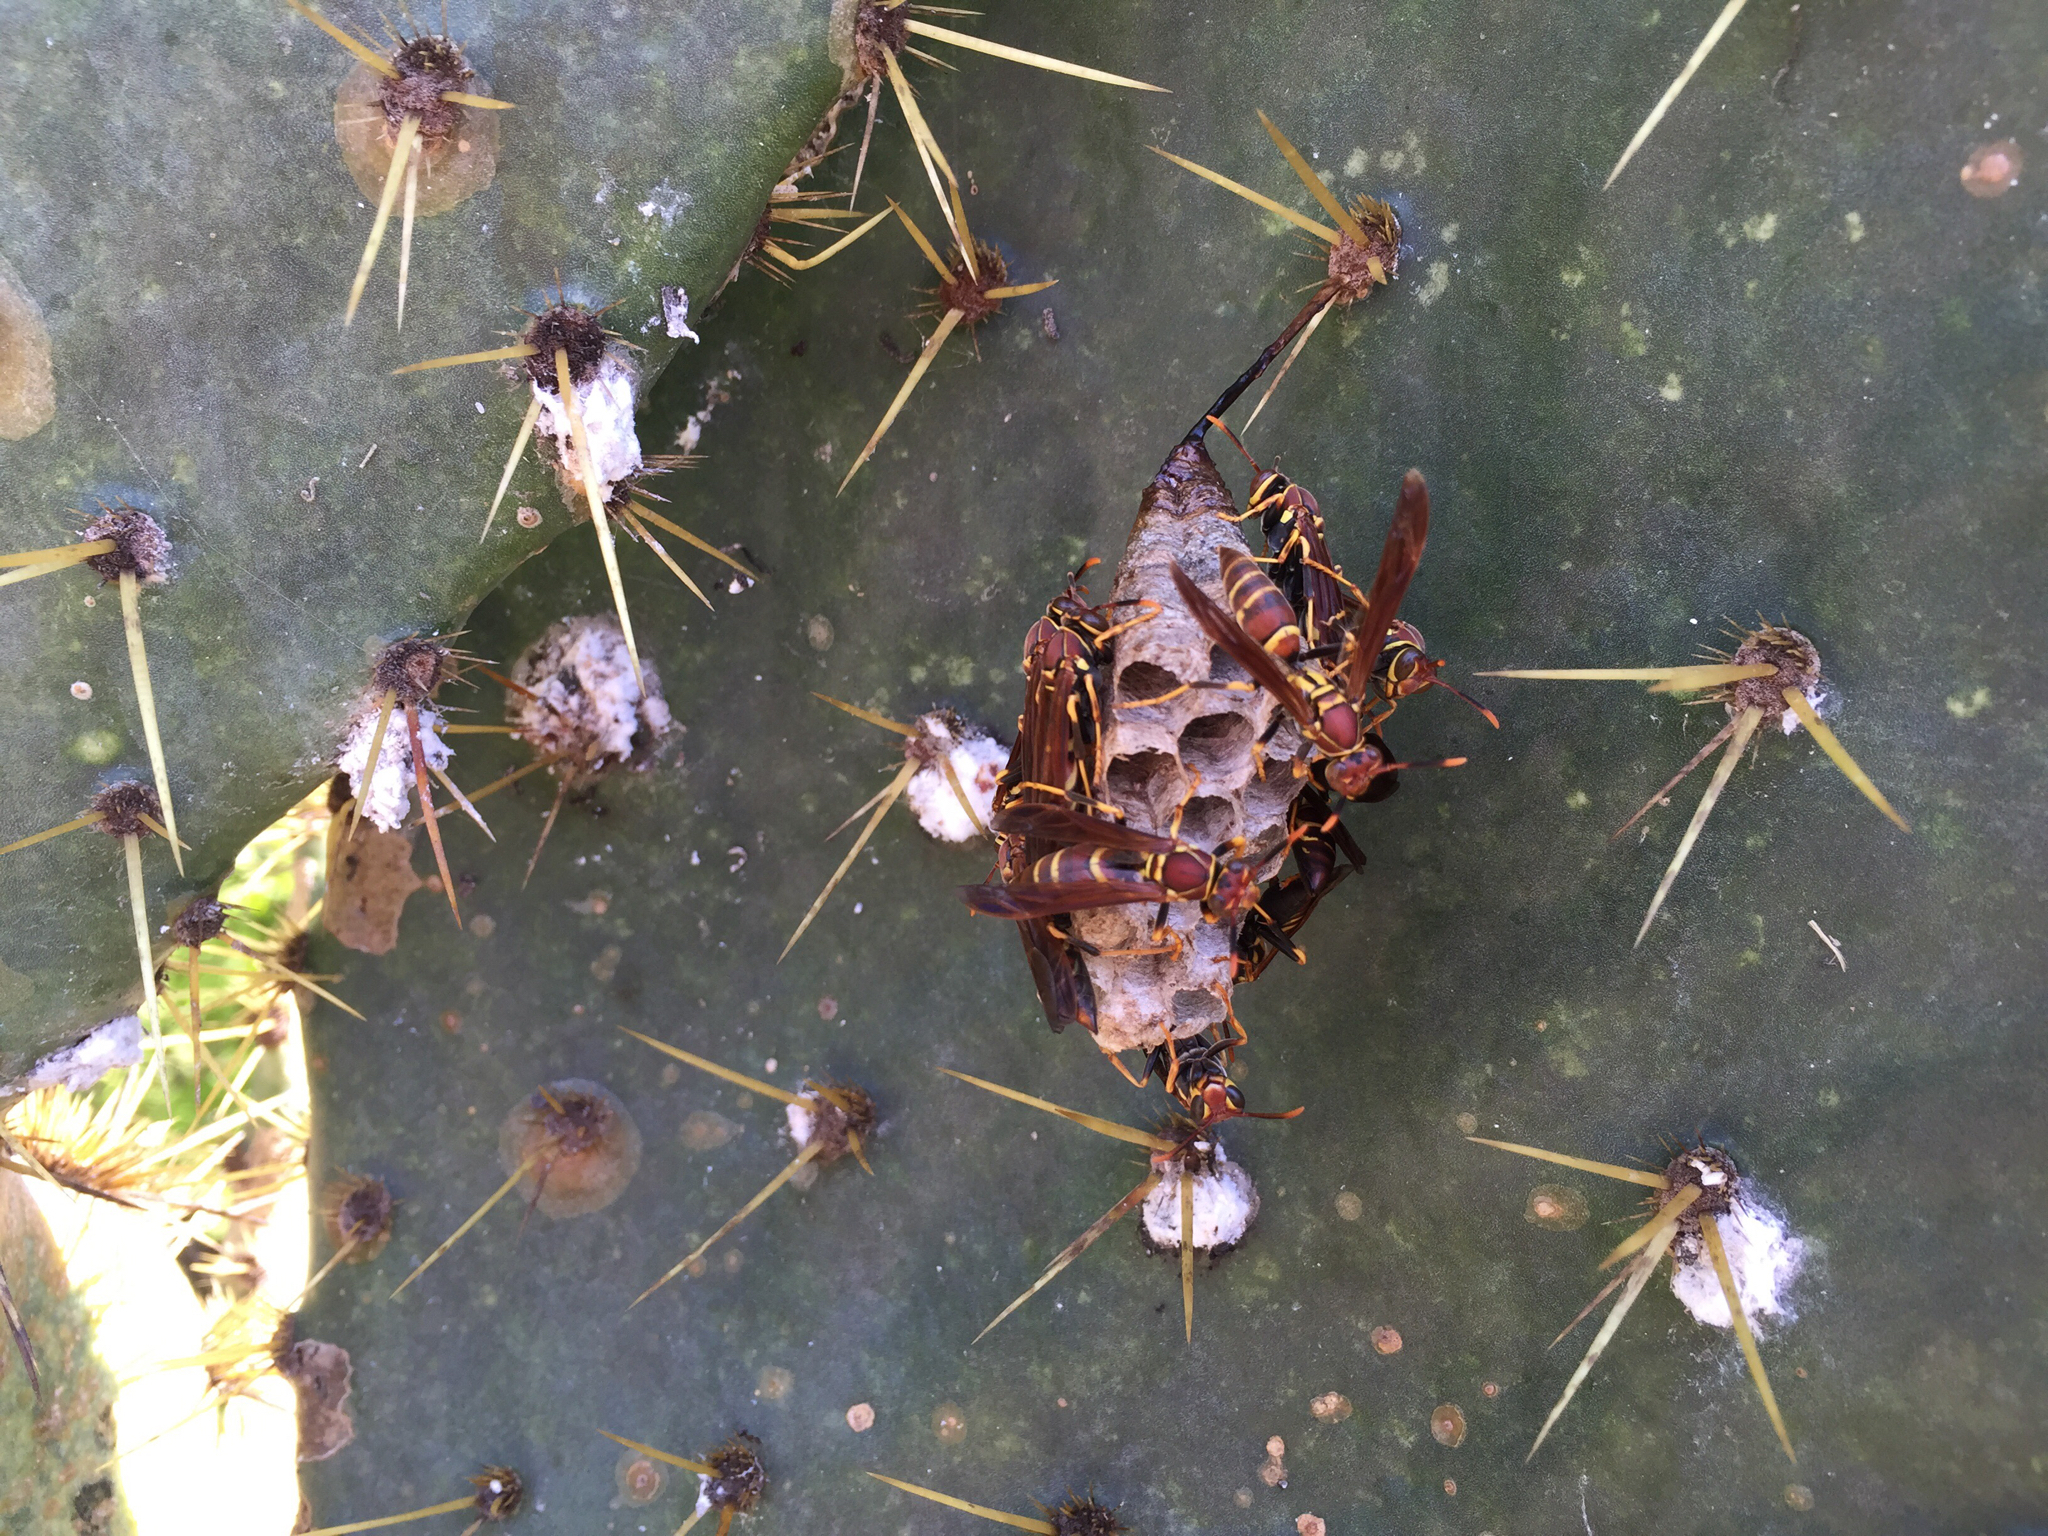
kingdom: Animalia
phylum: Arthropoda
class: Insecta
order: Hymenoptera
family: Eumenidae
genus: Polistes
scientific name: Polistes instabilis
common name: Unstable paper wasp
